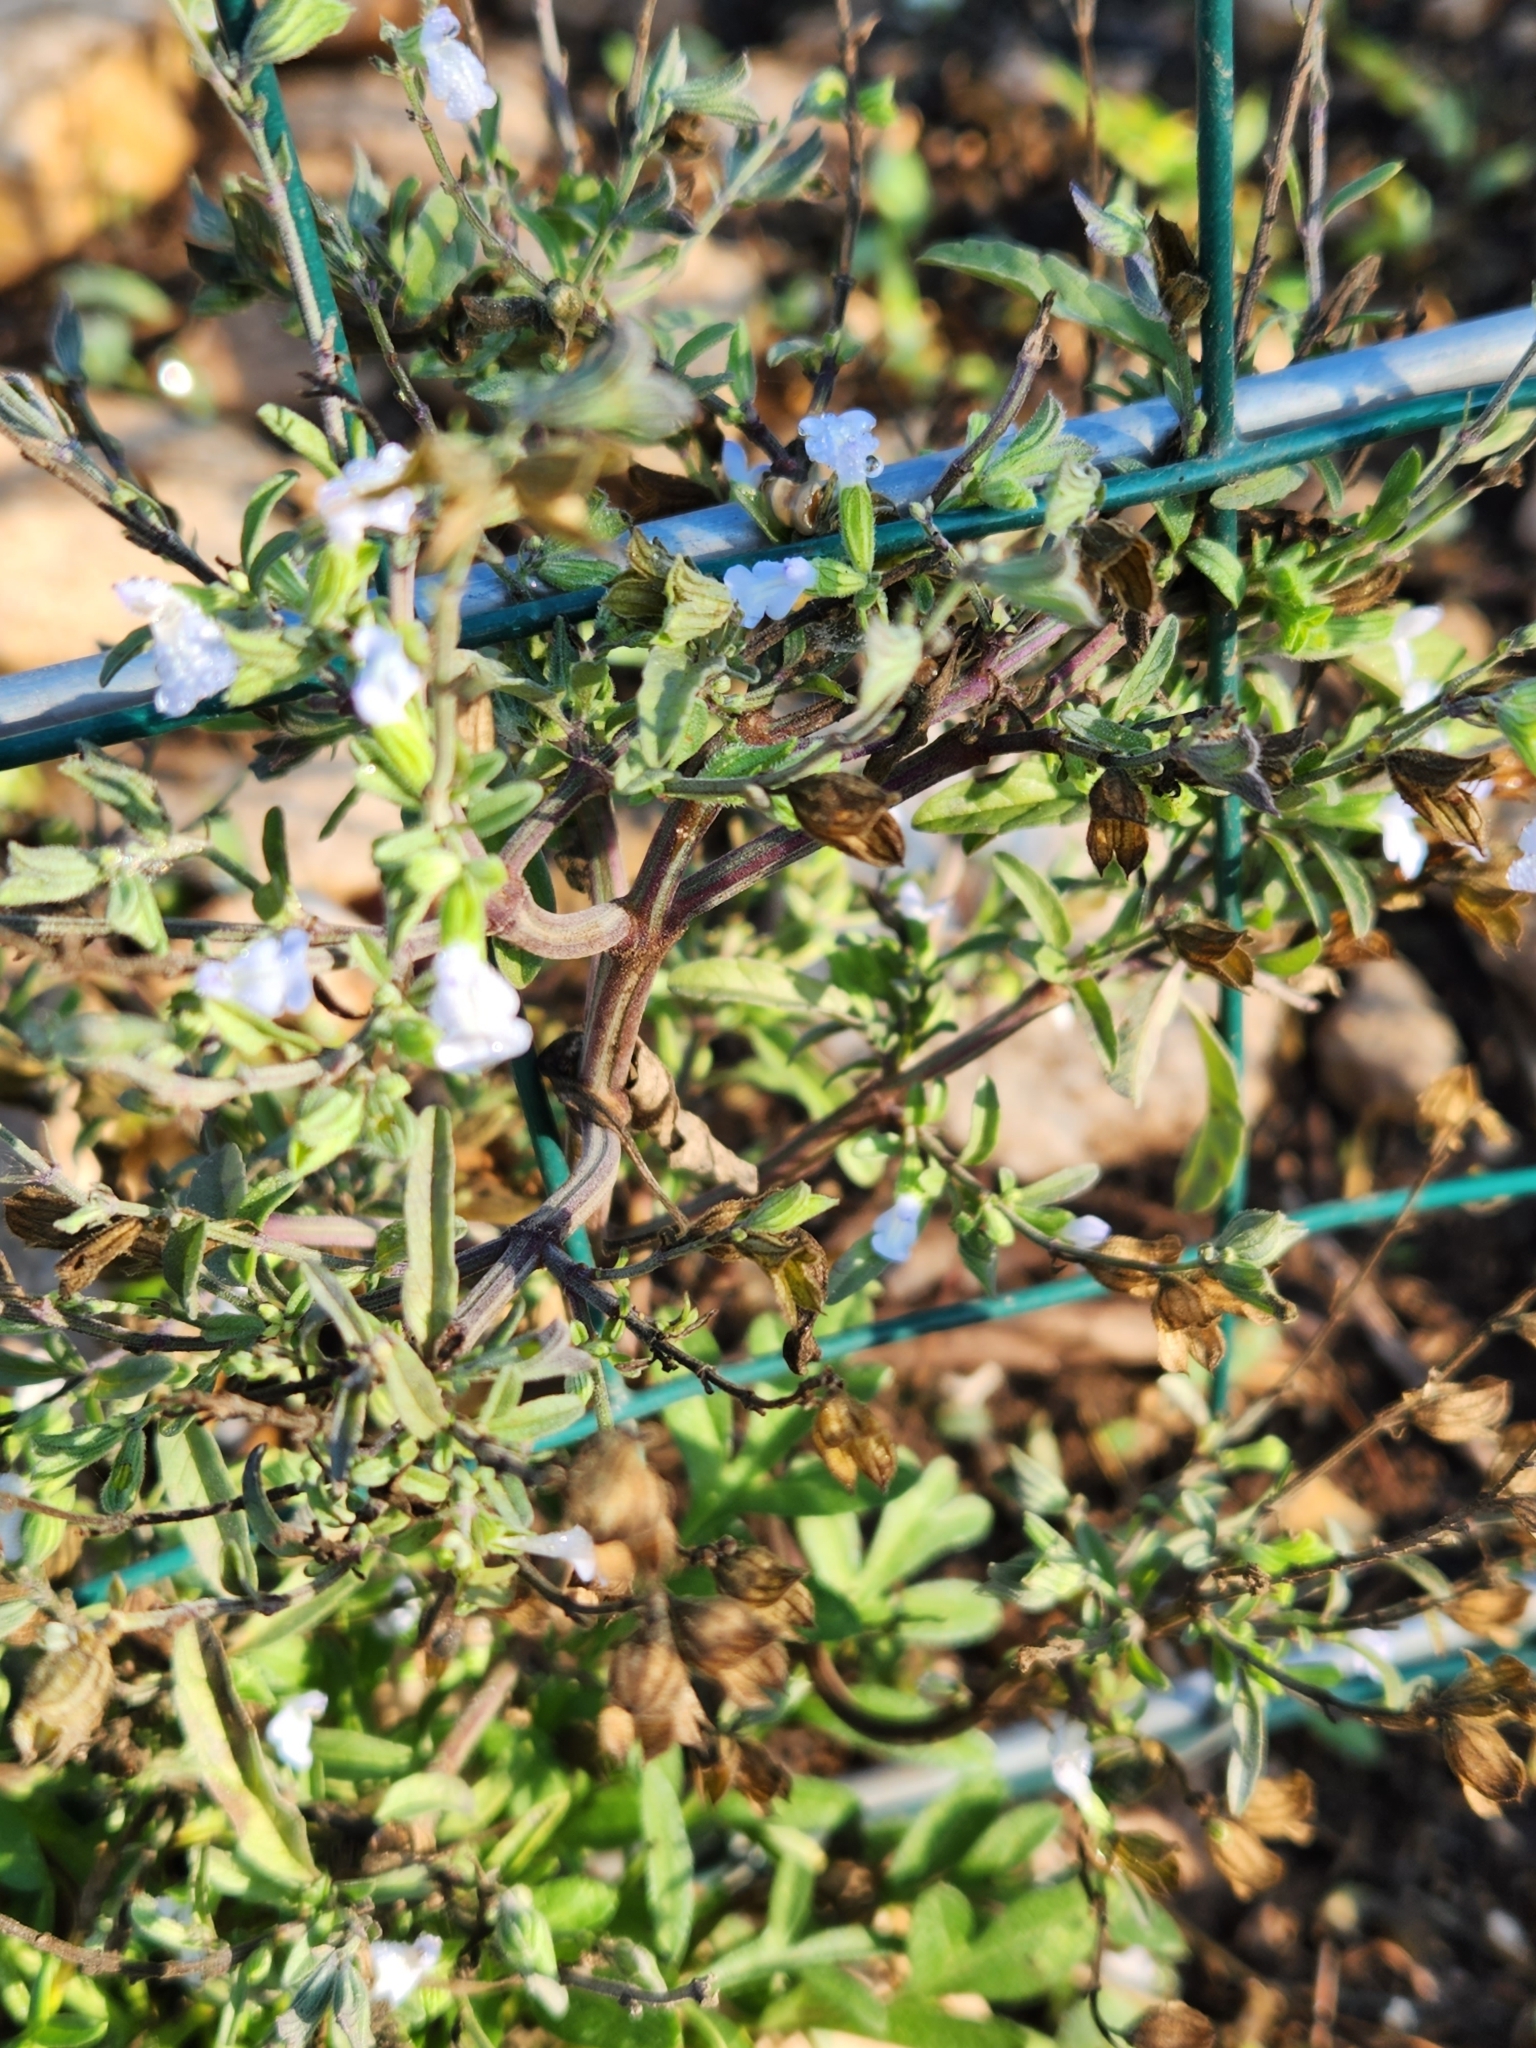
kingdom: Plantae
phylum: Tracheophyta
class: Magnoliopsida
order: Lamiales
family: Lamiaceae
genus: Salvia
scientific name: Salvia reflexa
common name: Mintweed
